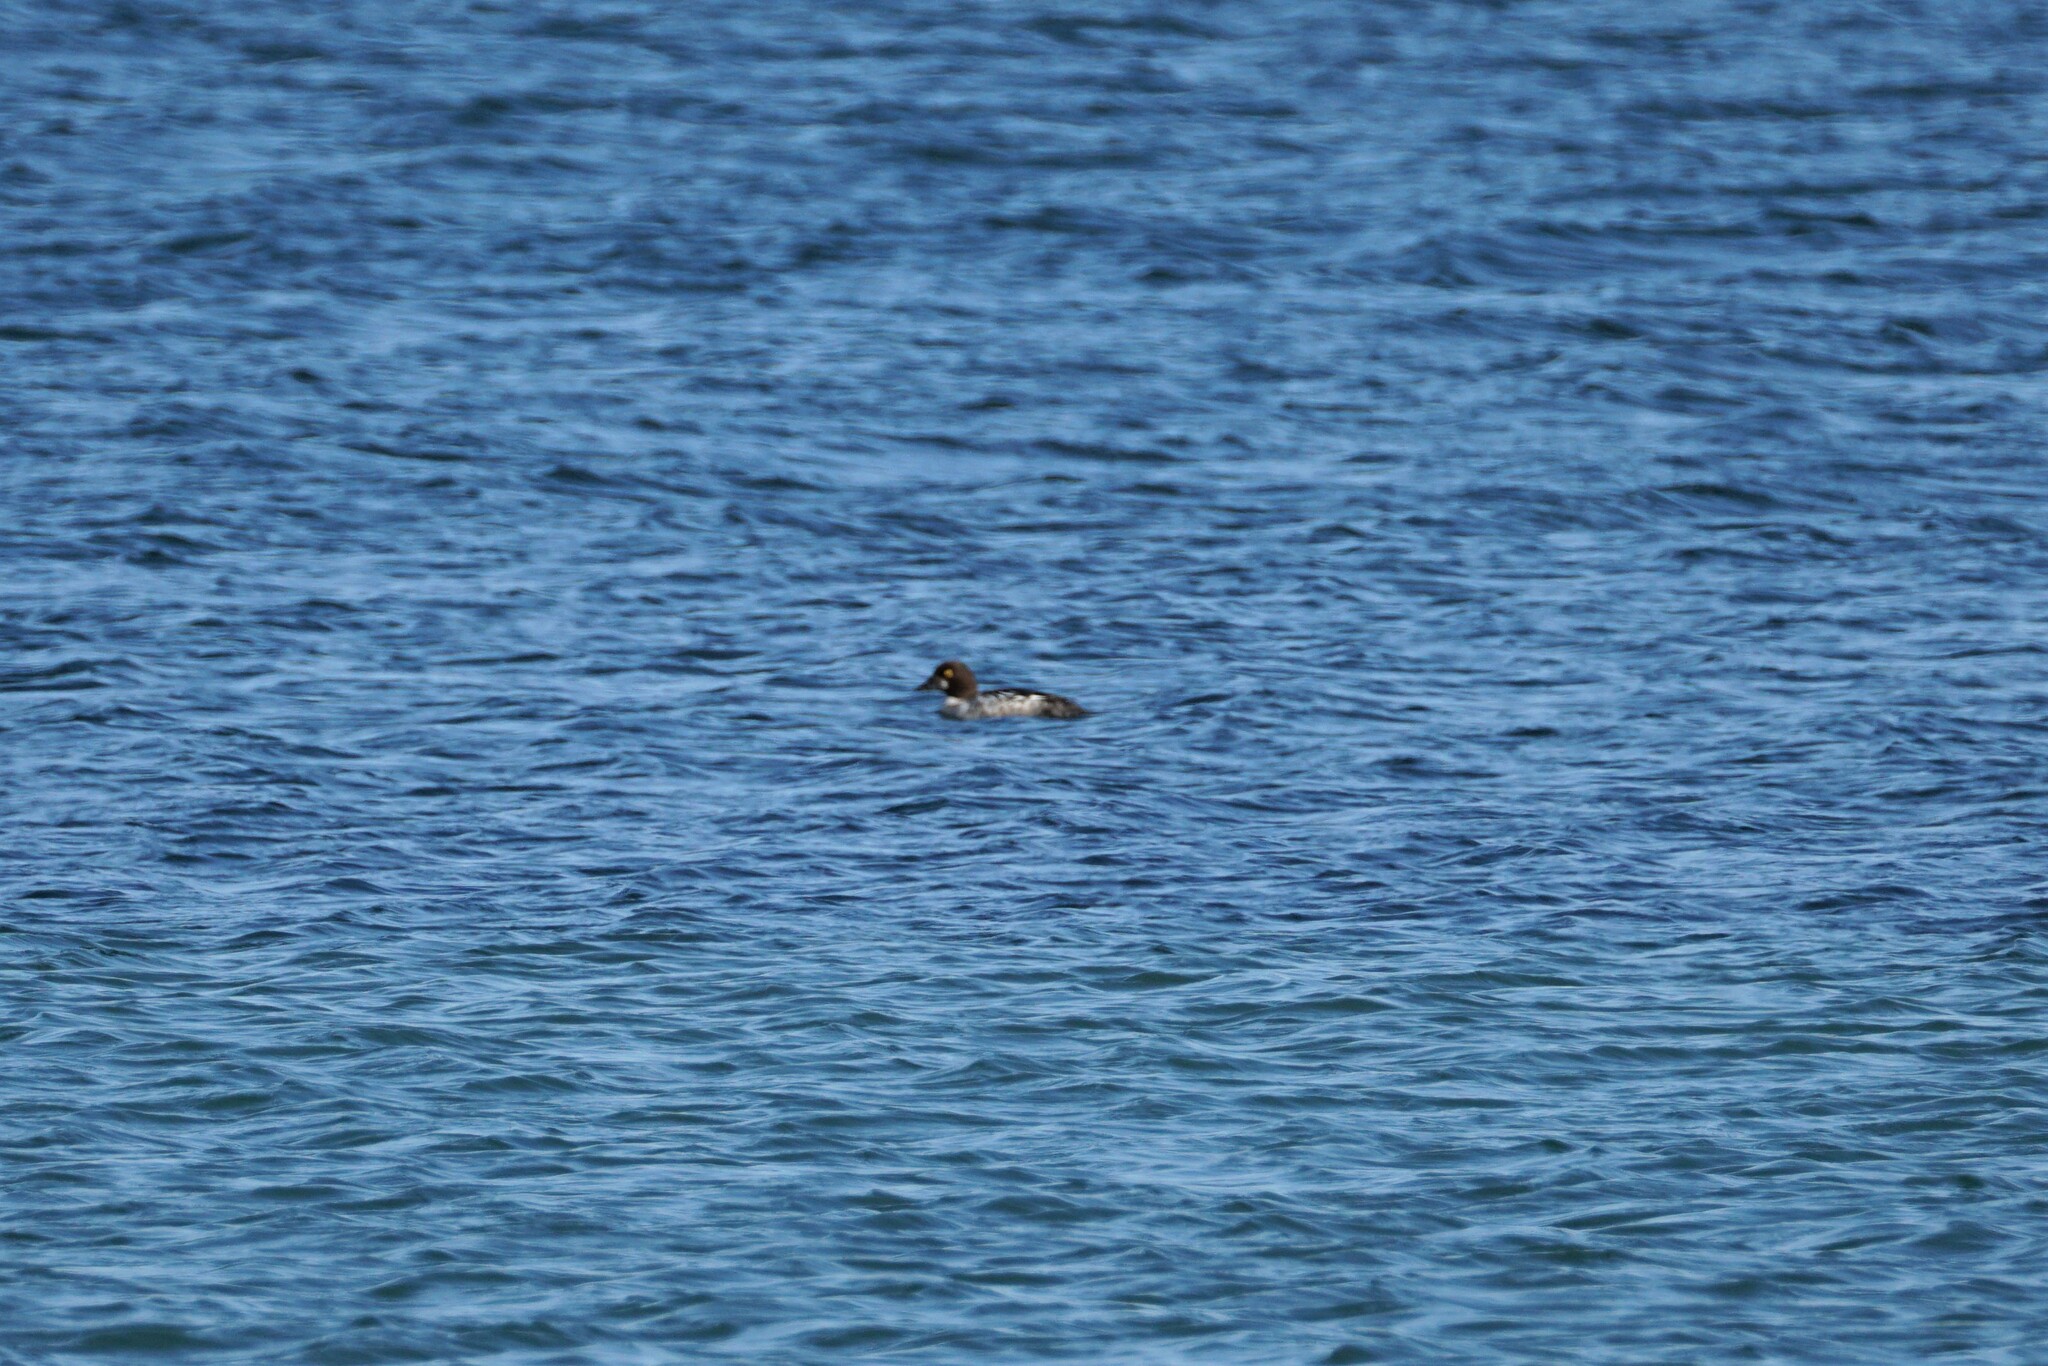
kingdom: Animalia
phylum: Chordata
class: Aves
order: Anseriformes
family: Anatidae
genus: Bucephala
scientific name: Bucephala clangula
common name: Common goldeneye
